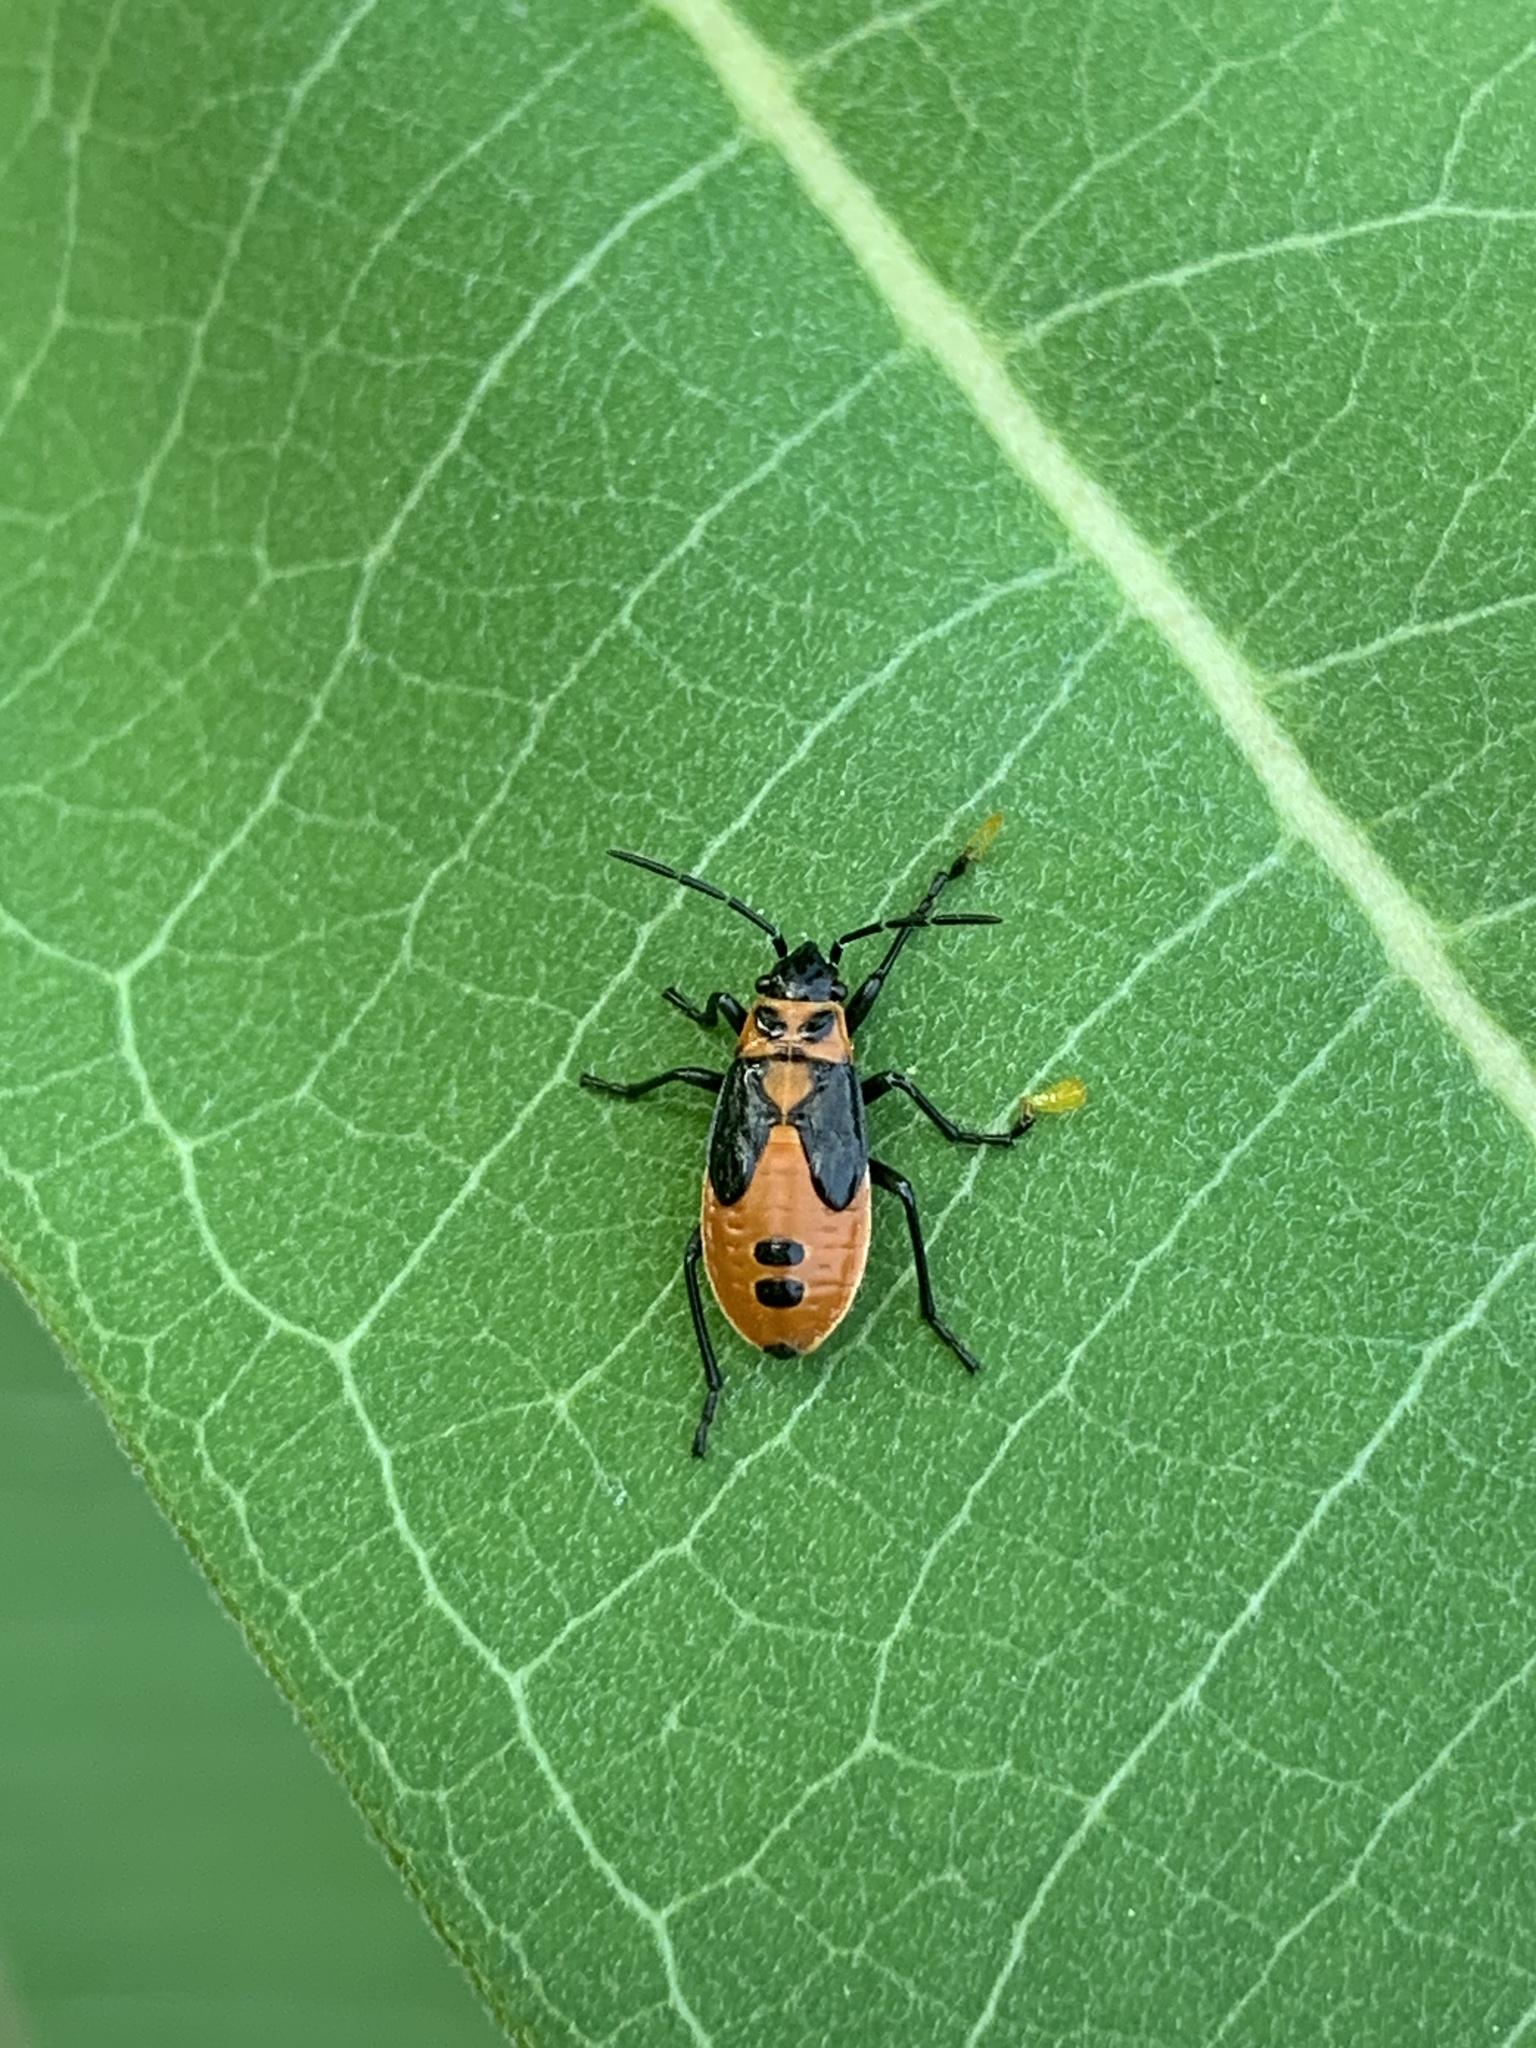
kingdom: Animalia
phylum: Arthropoda
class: Insecta
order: Hemiptera
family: Lygaeidae
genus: Lygaeus
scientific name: Lygaeus turcicus
